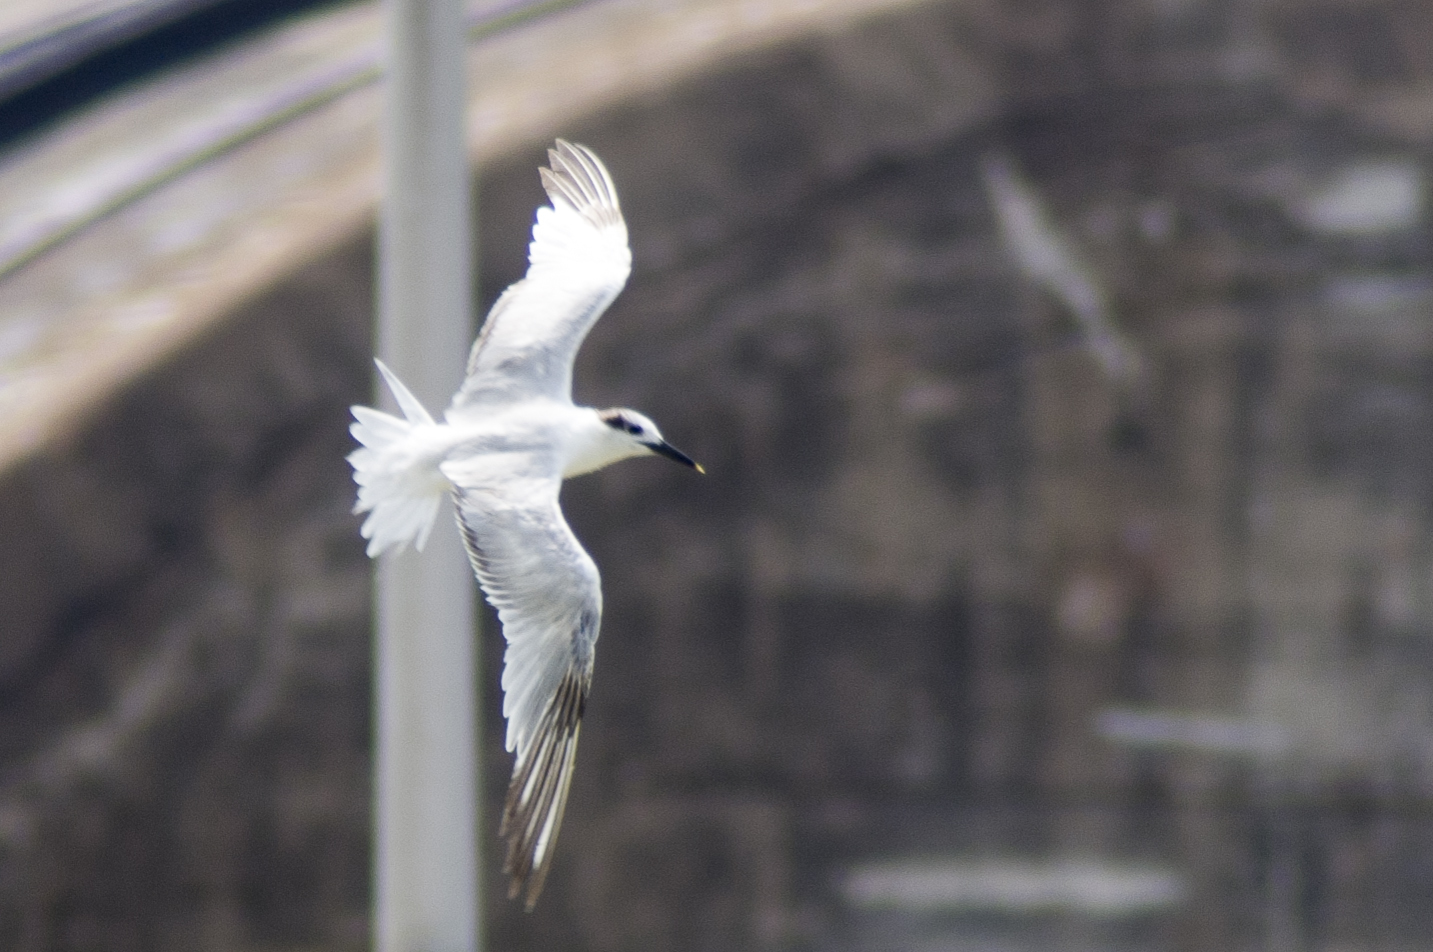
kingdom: Animalia
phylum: Chordata
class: Aves
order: Charadriiformes
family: Laridae
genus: Thalasseus
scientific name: Thalasseus sandvicensis
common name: Sandwich tern
